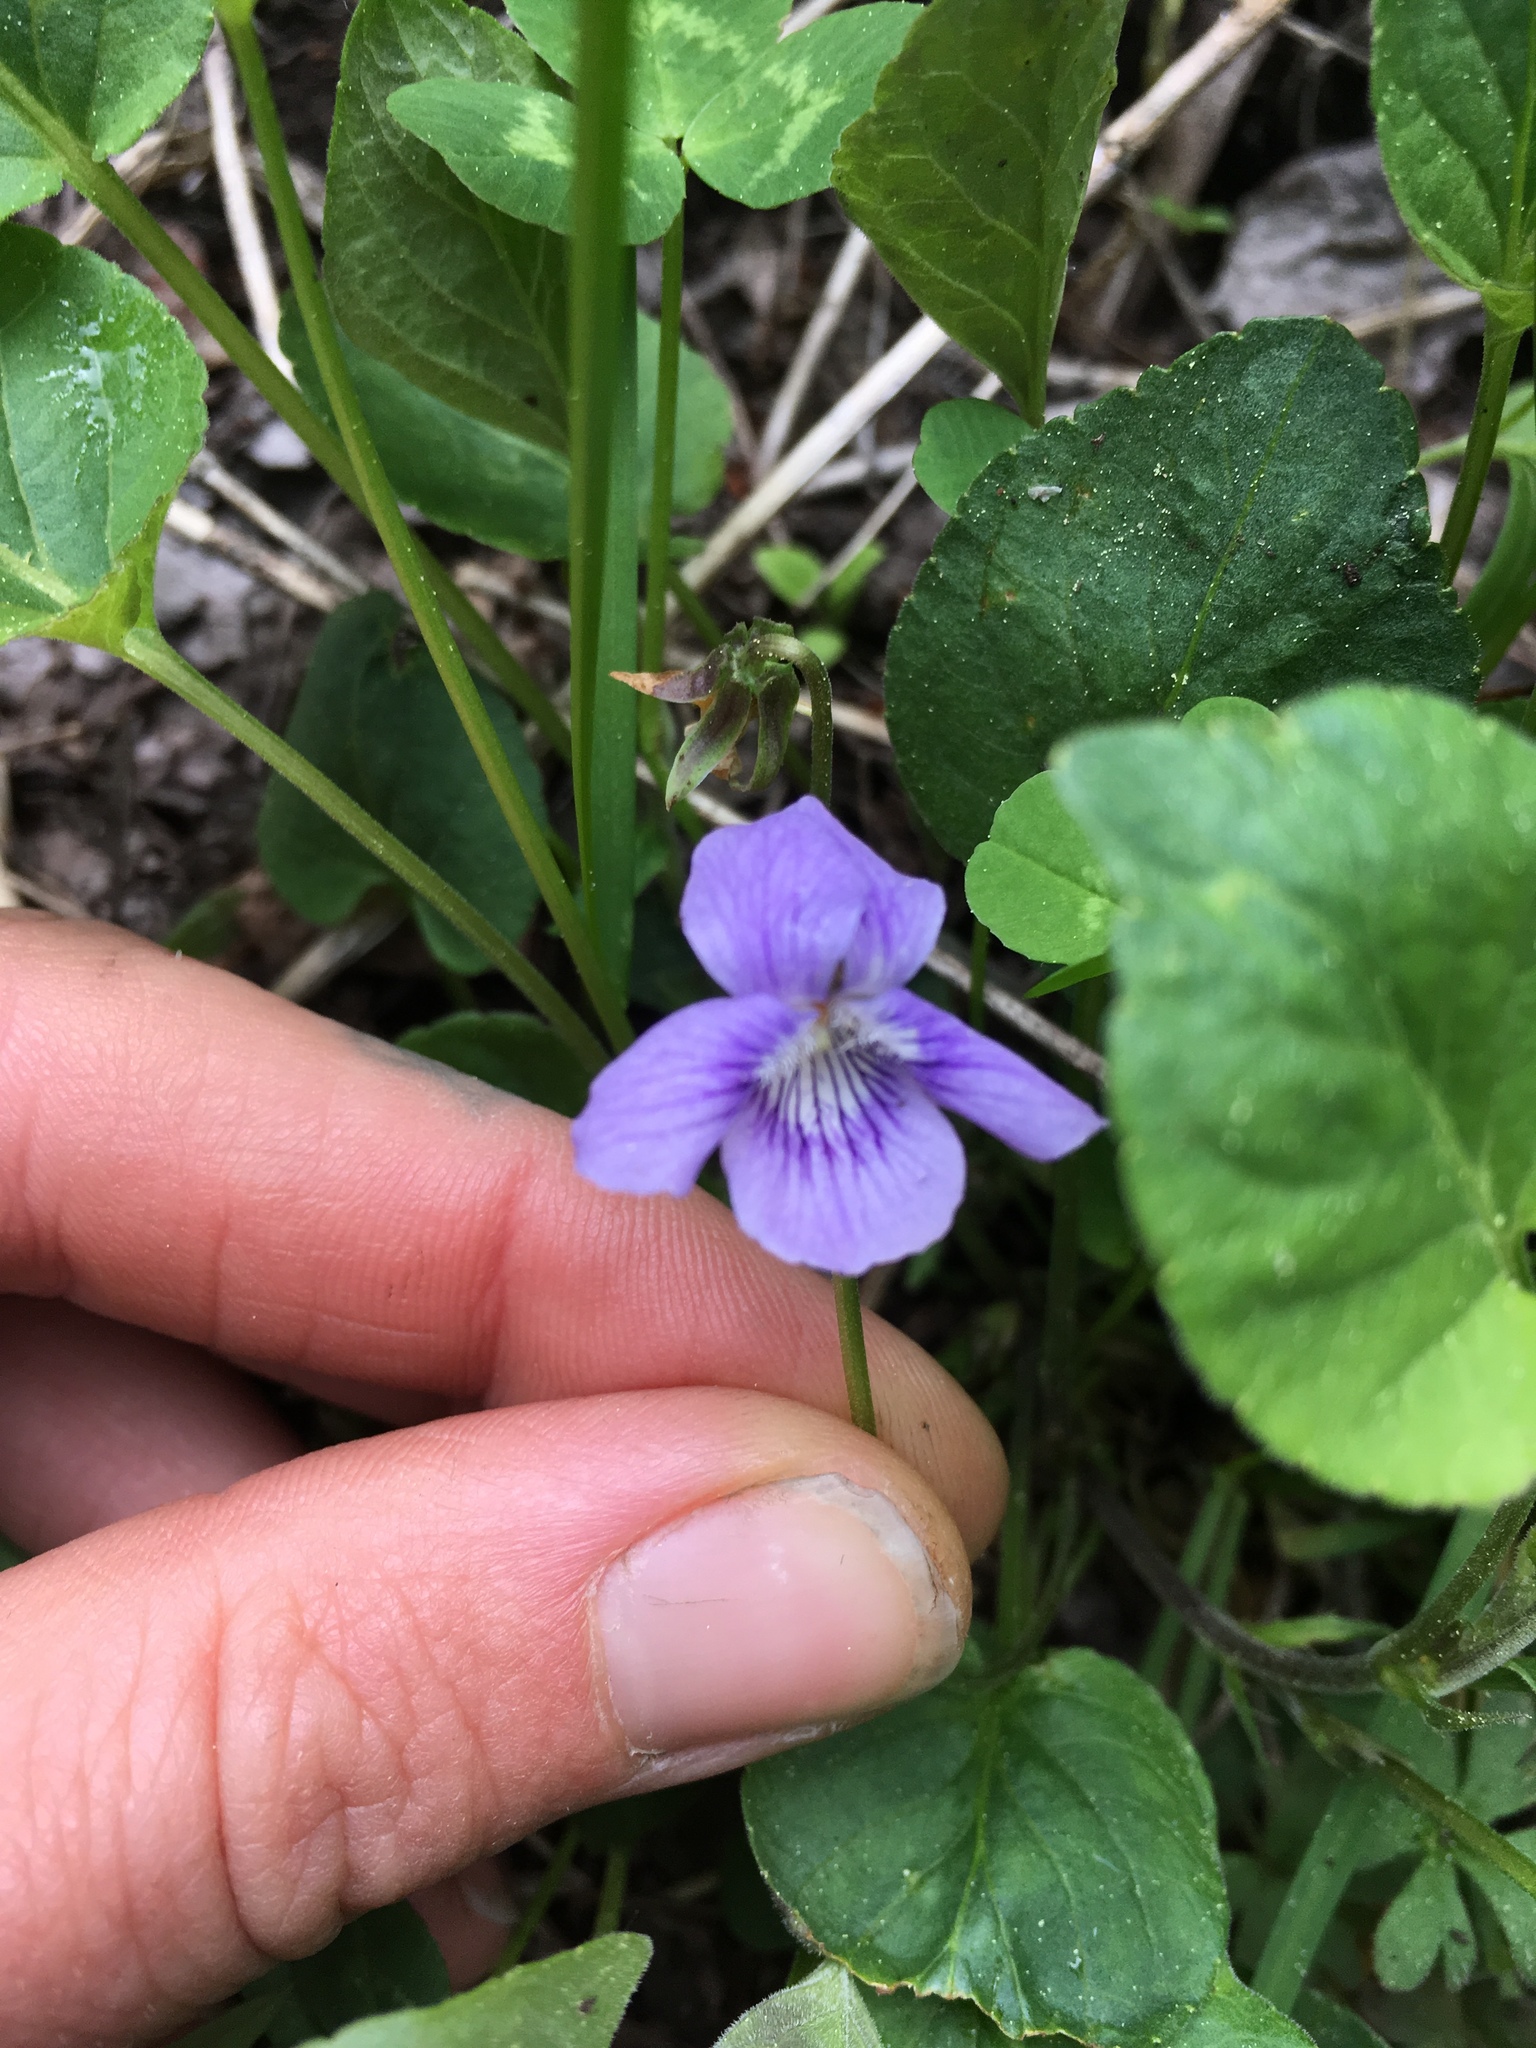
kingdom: Plantae
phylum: Tracheophyta
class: Magnoliopsida
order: Malpighiales
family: Violaceae
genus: Viola
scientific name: Viola adunca
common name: Sand violet
